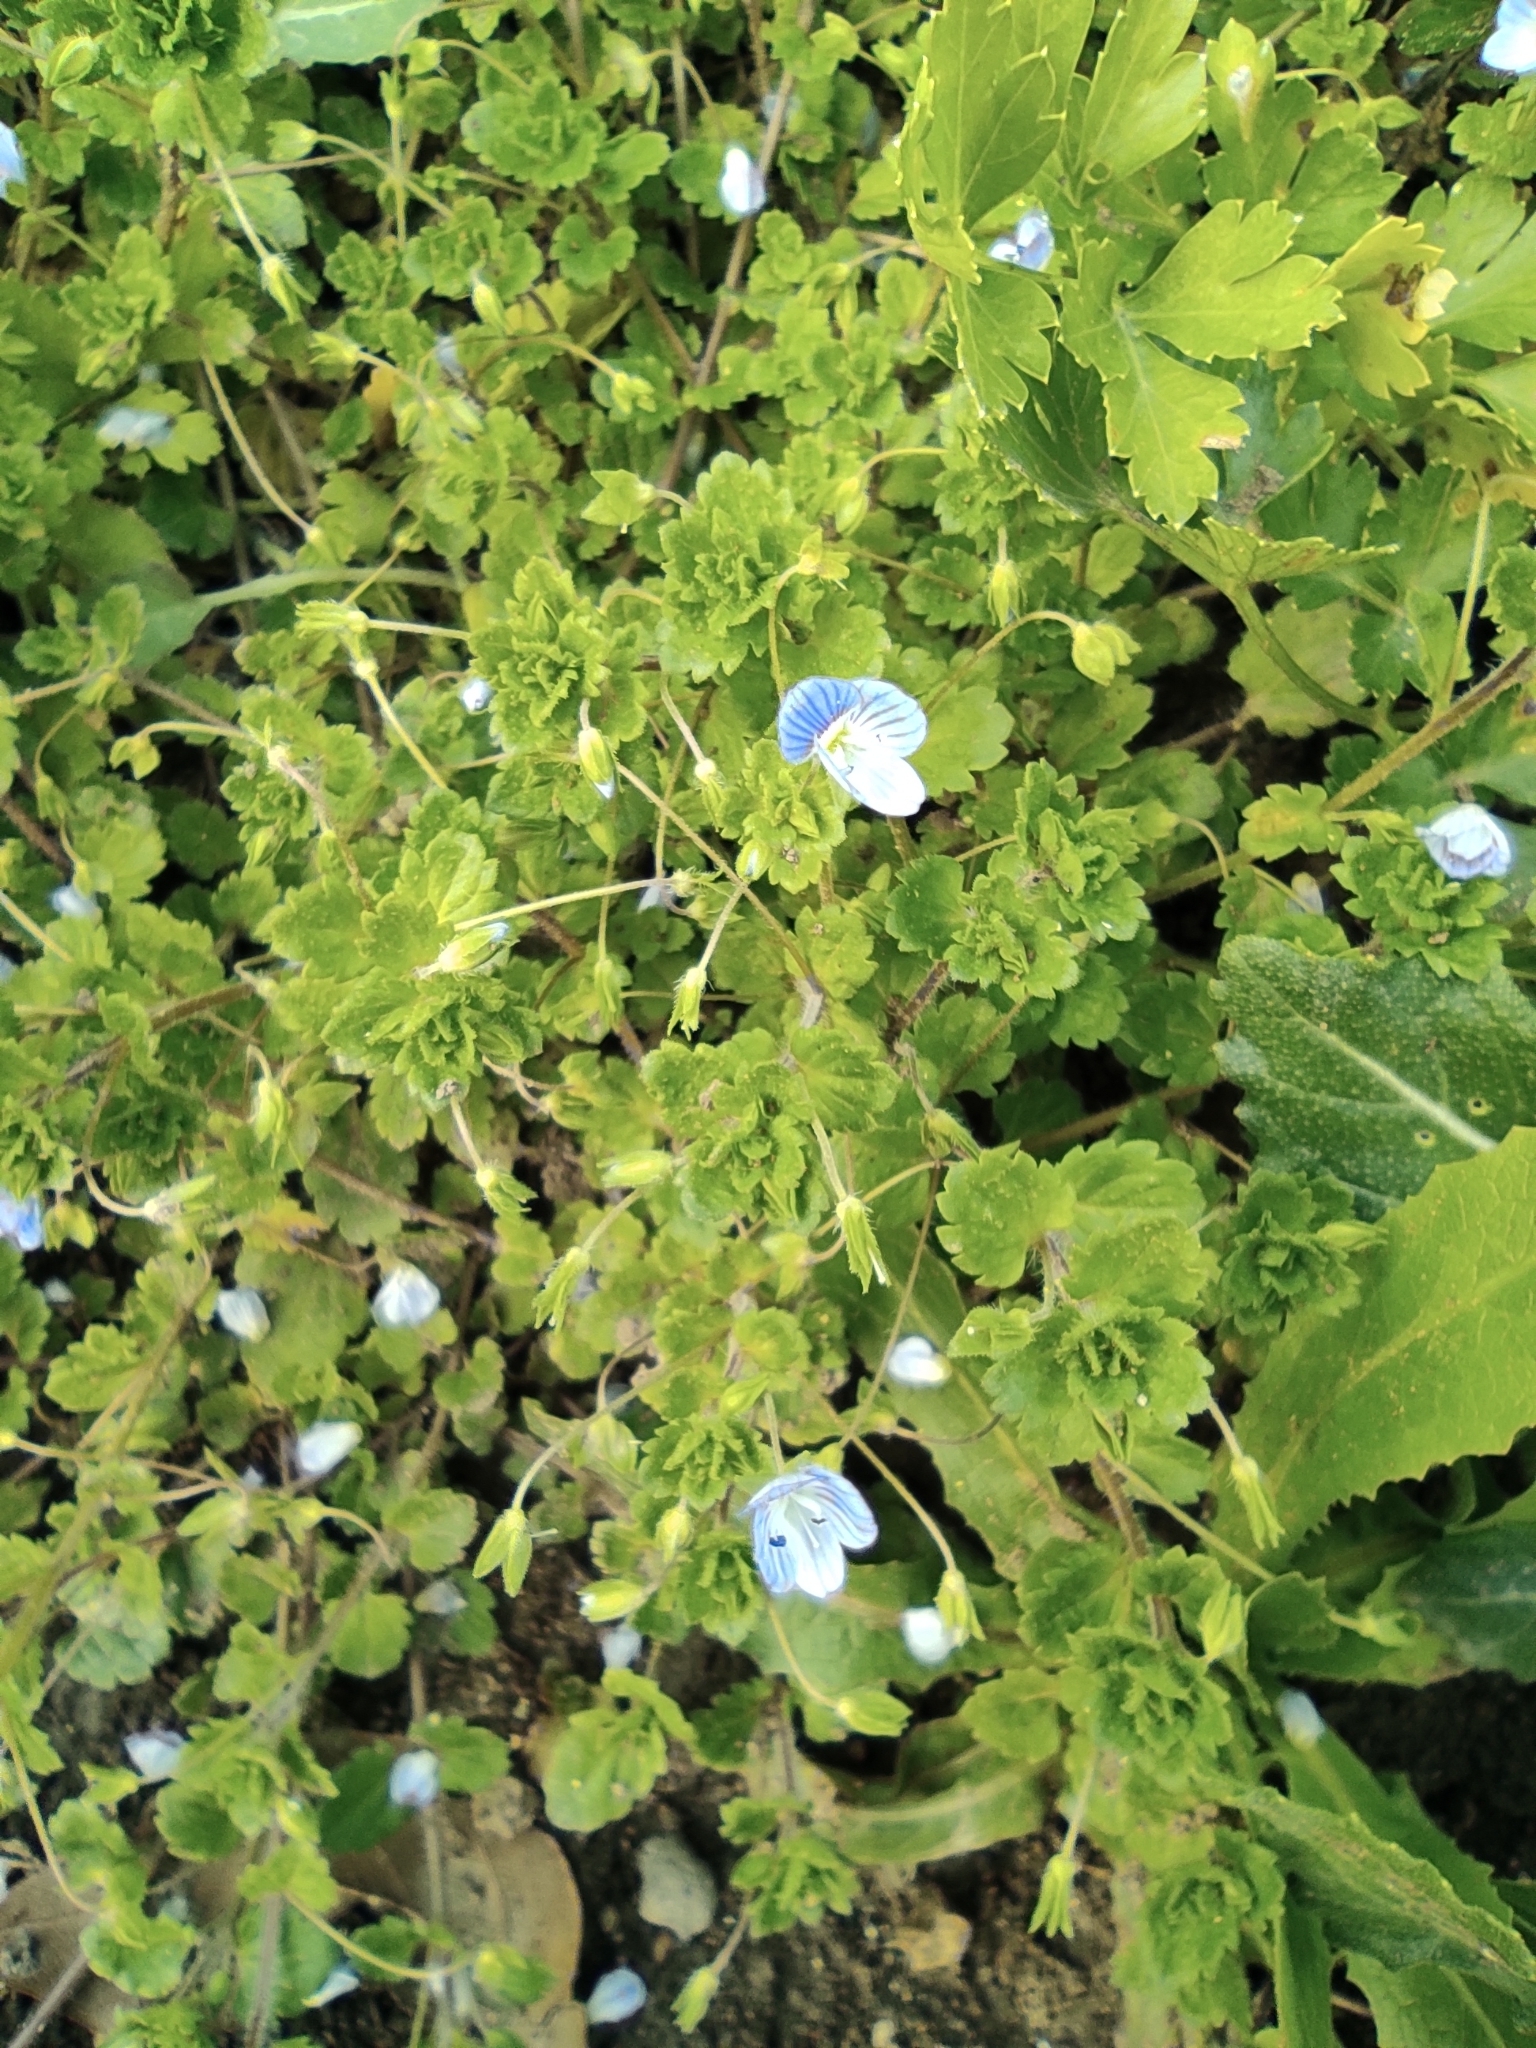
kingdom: Plantae
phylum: Tracheophyta
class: Magnoliopsida
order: Lamiales
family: Plantaginaceae
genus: Veronica
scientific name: Veronica persica
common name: Common field-speedwell
